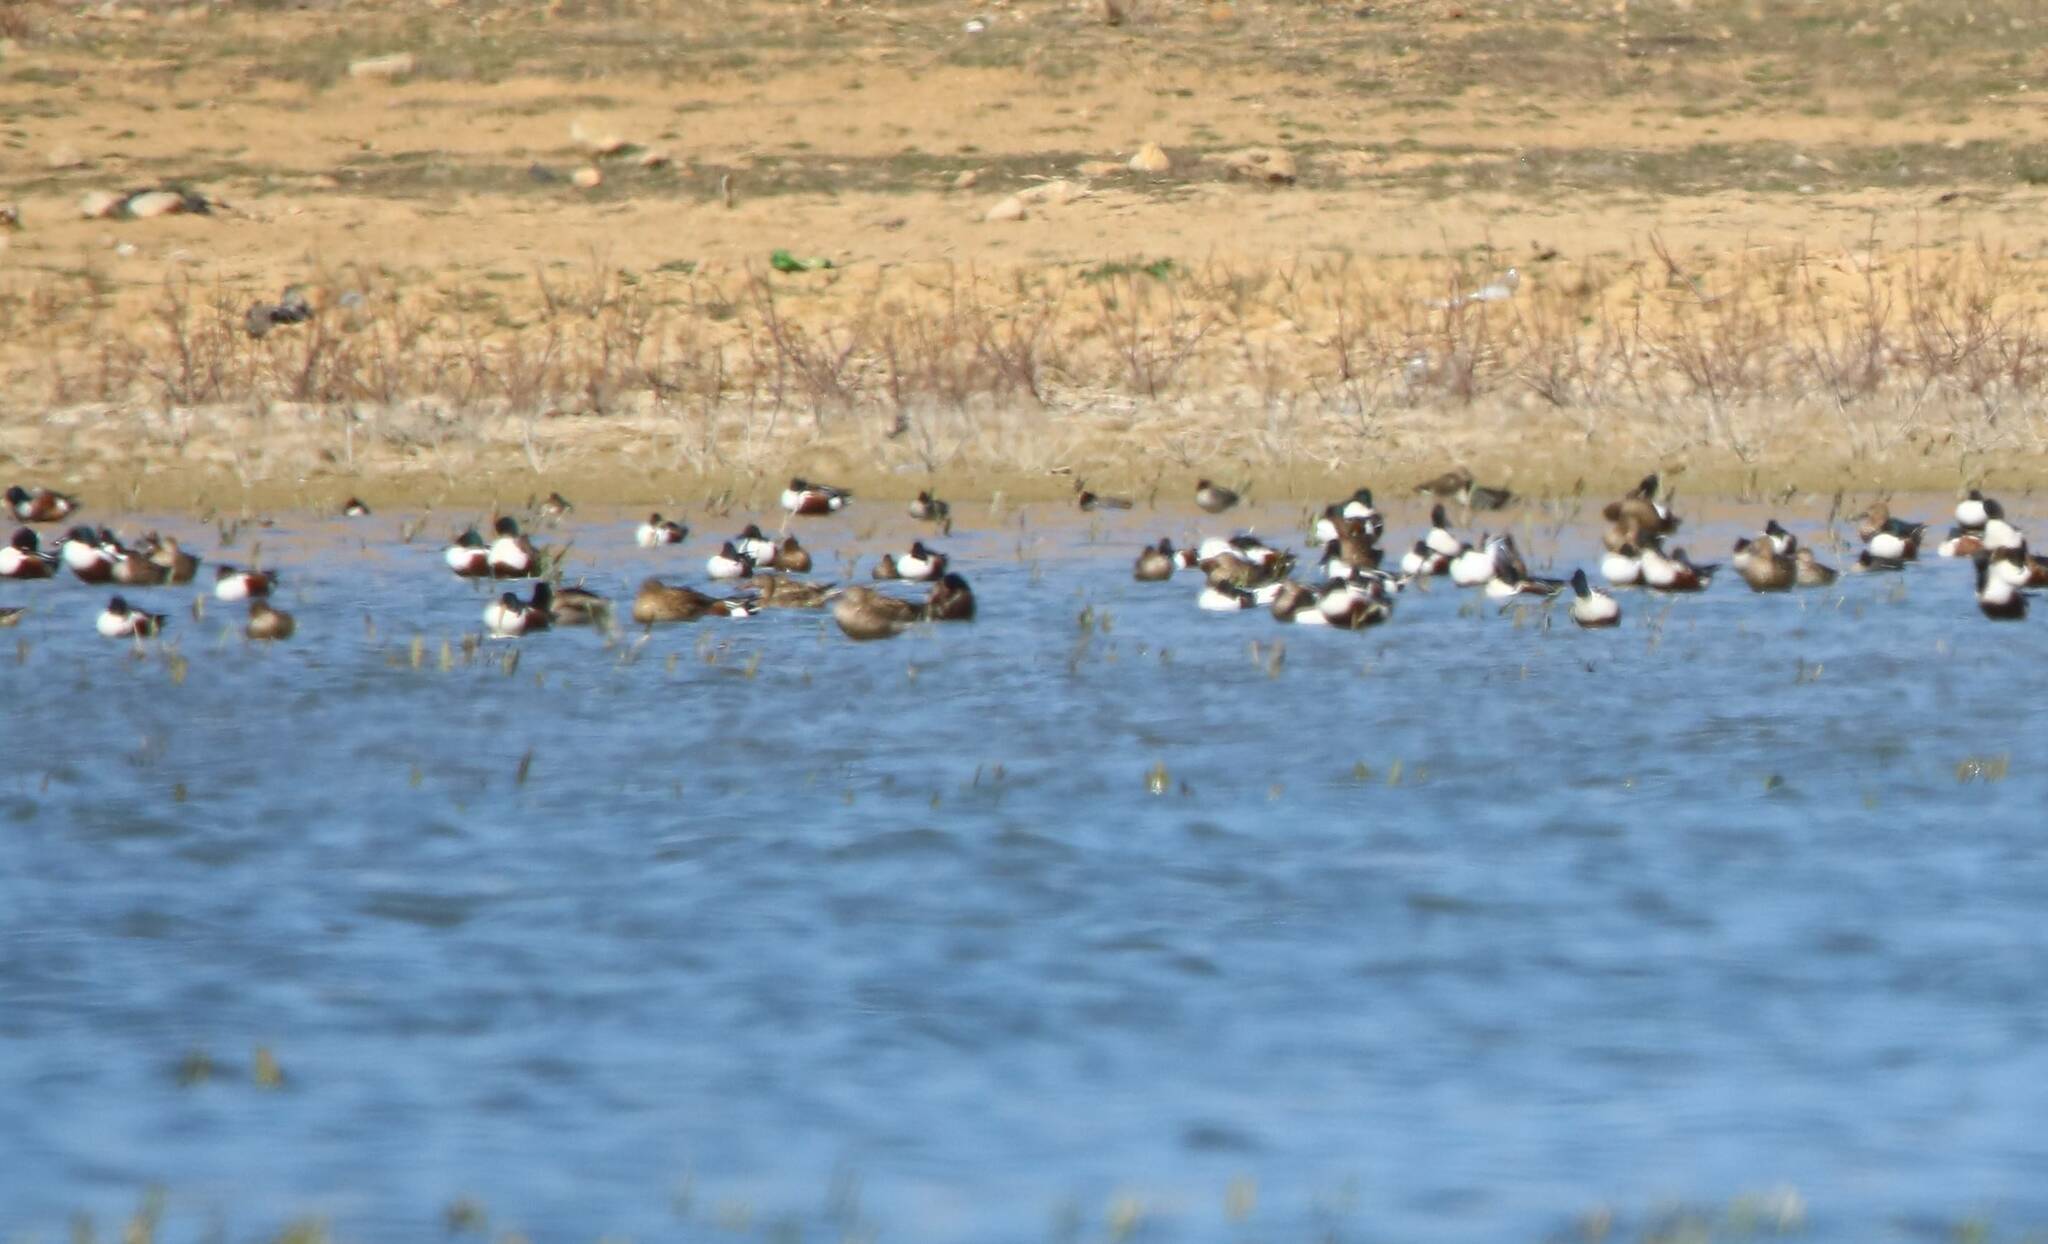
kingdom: Animalia
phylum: Chordata
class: Aves
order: Anseriformes
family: Anatidae
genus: Spatula
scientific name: Spatula clypeata
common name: Northern shoveler
